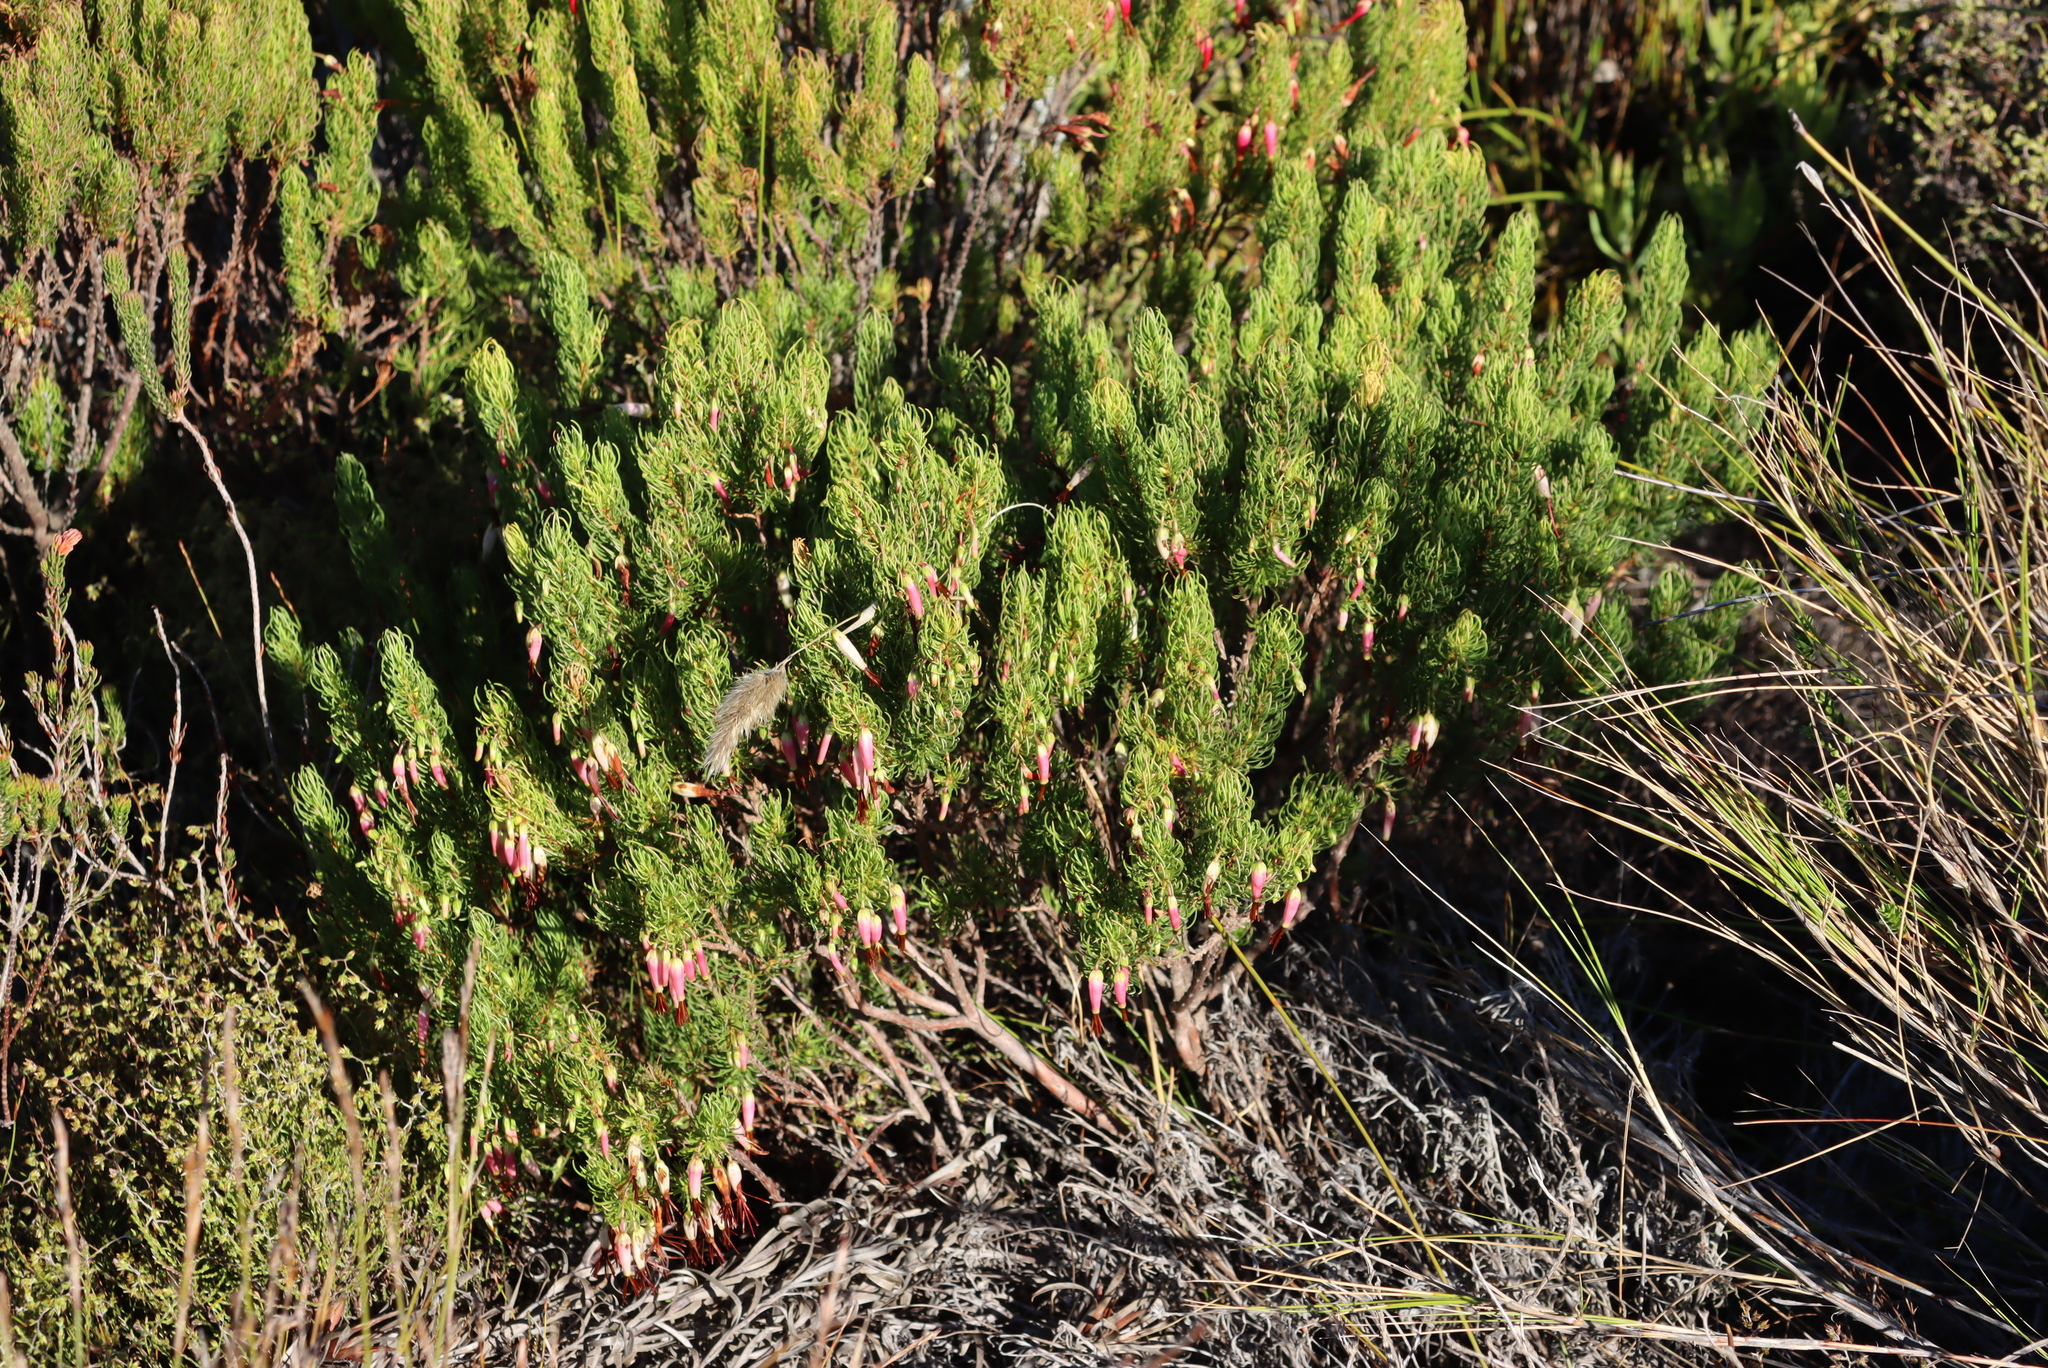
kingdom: Plantae
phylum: Tracheophyta
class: Magnoliopsida
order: Ericales
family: Ericaceae
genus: Erica
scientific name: Erica plukenetii
